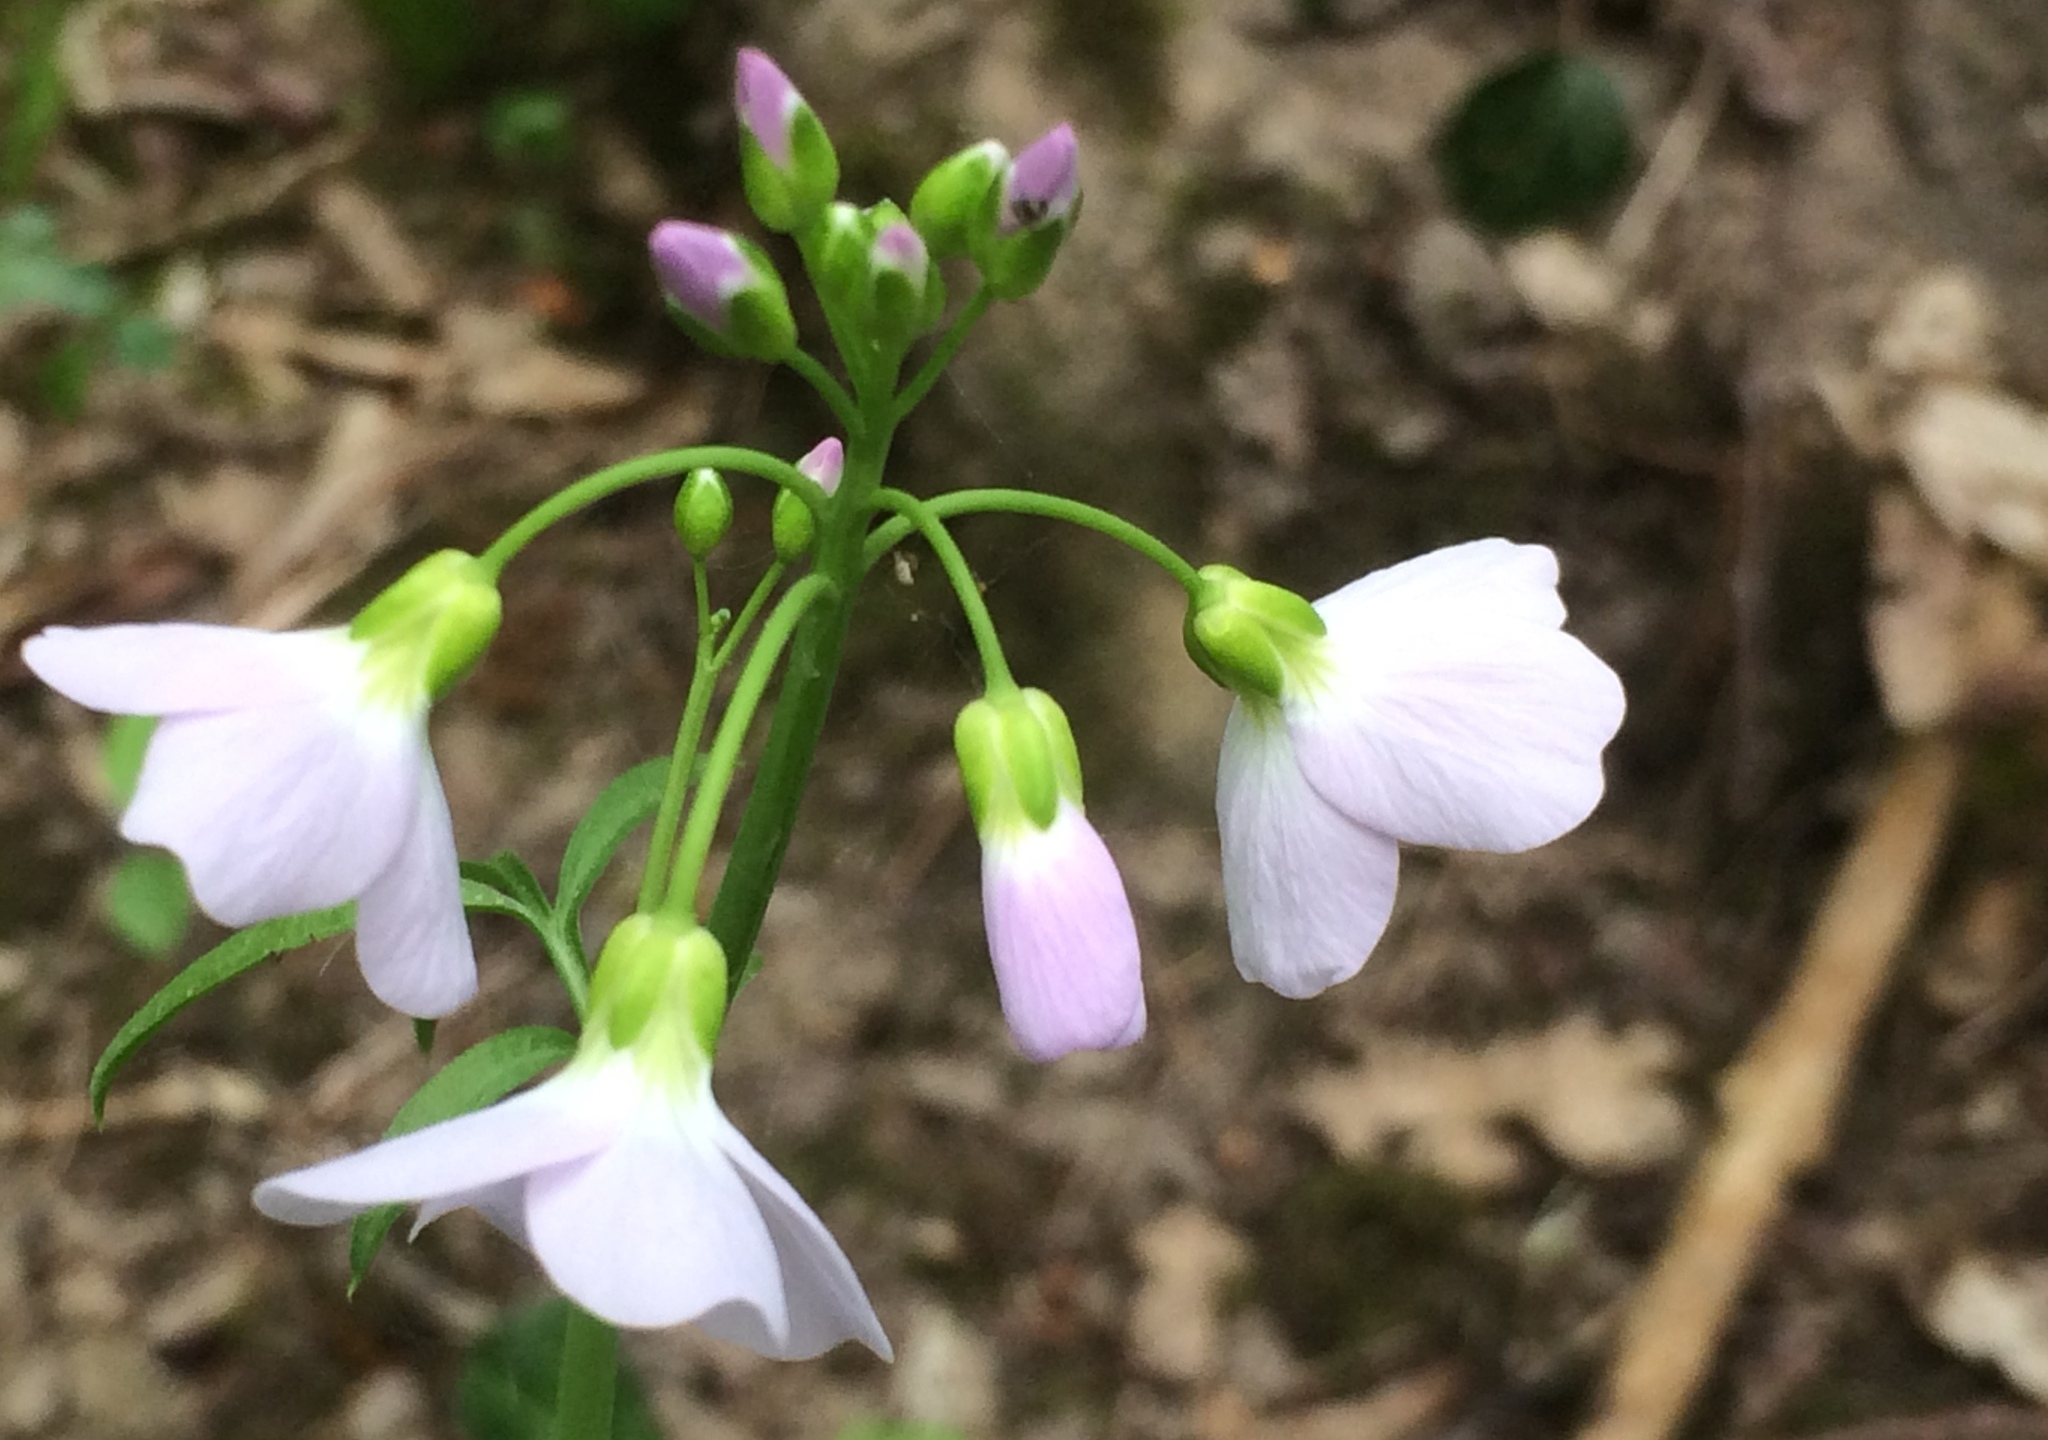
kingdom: Plantae
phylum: Tracheophyta
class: Magnoliopsida
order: Brassicales
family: Brassicaceae
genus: Cardamine
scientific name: Cardamine pratensis
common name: Cuckoo flower
